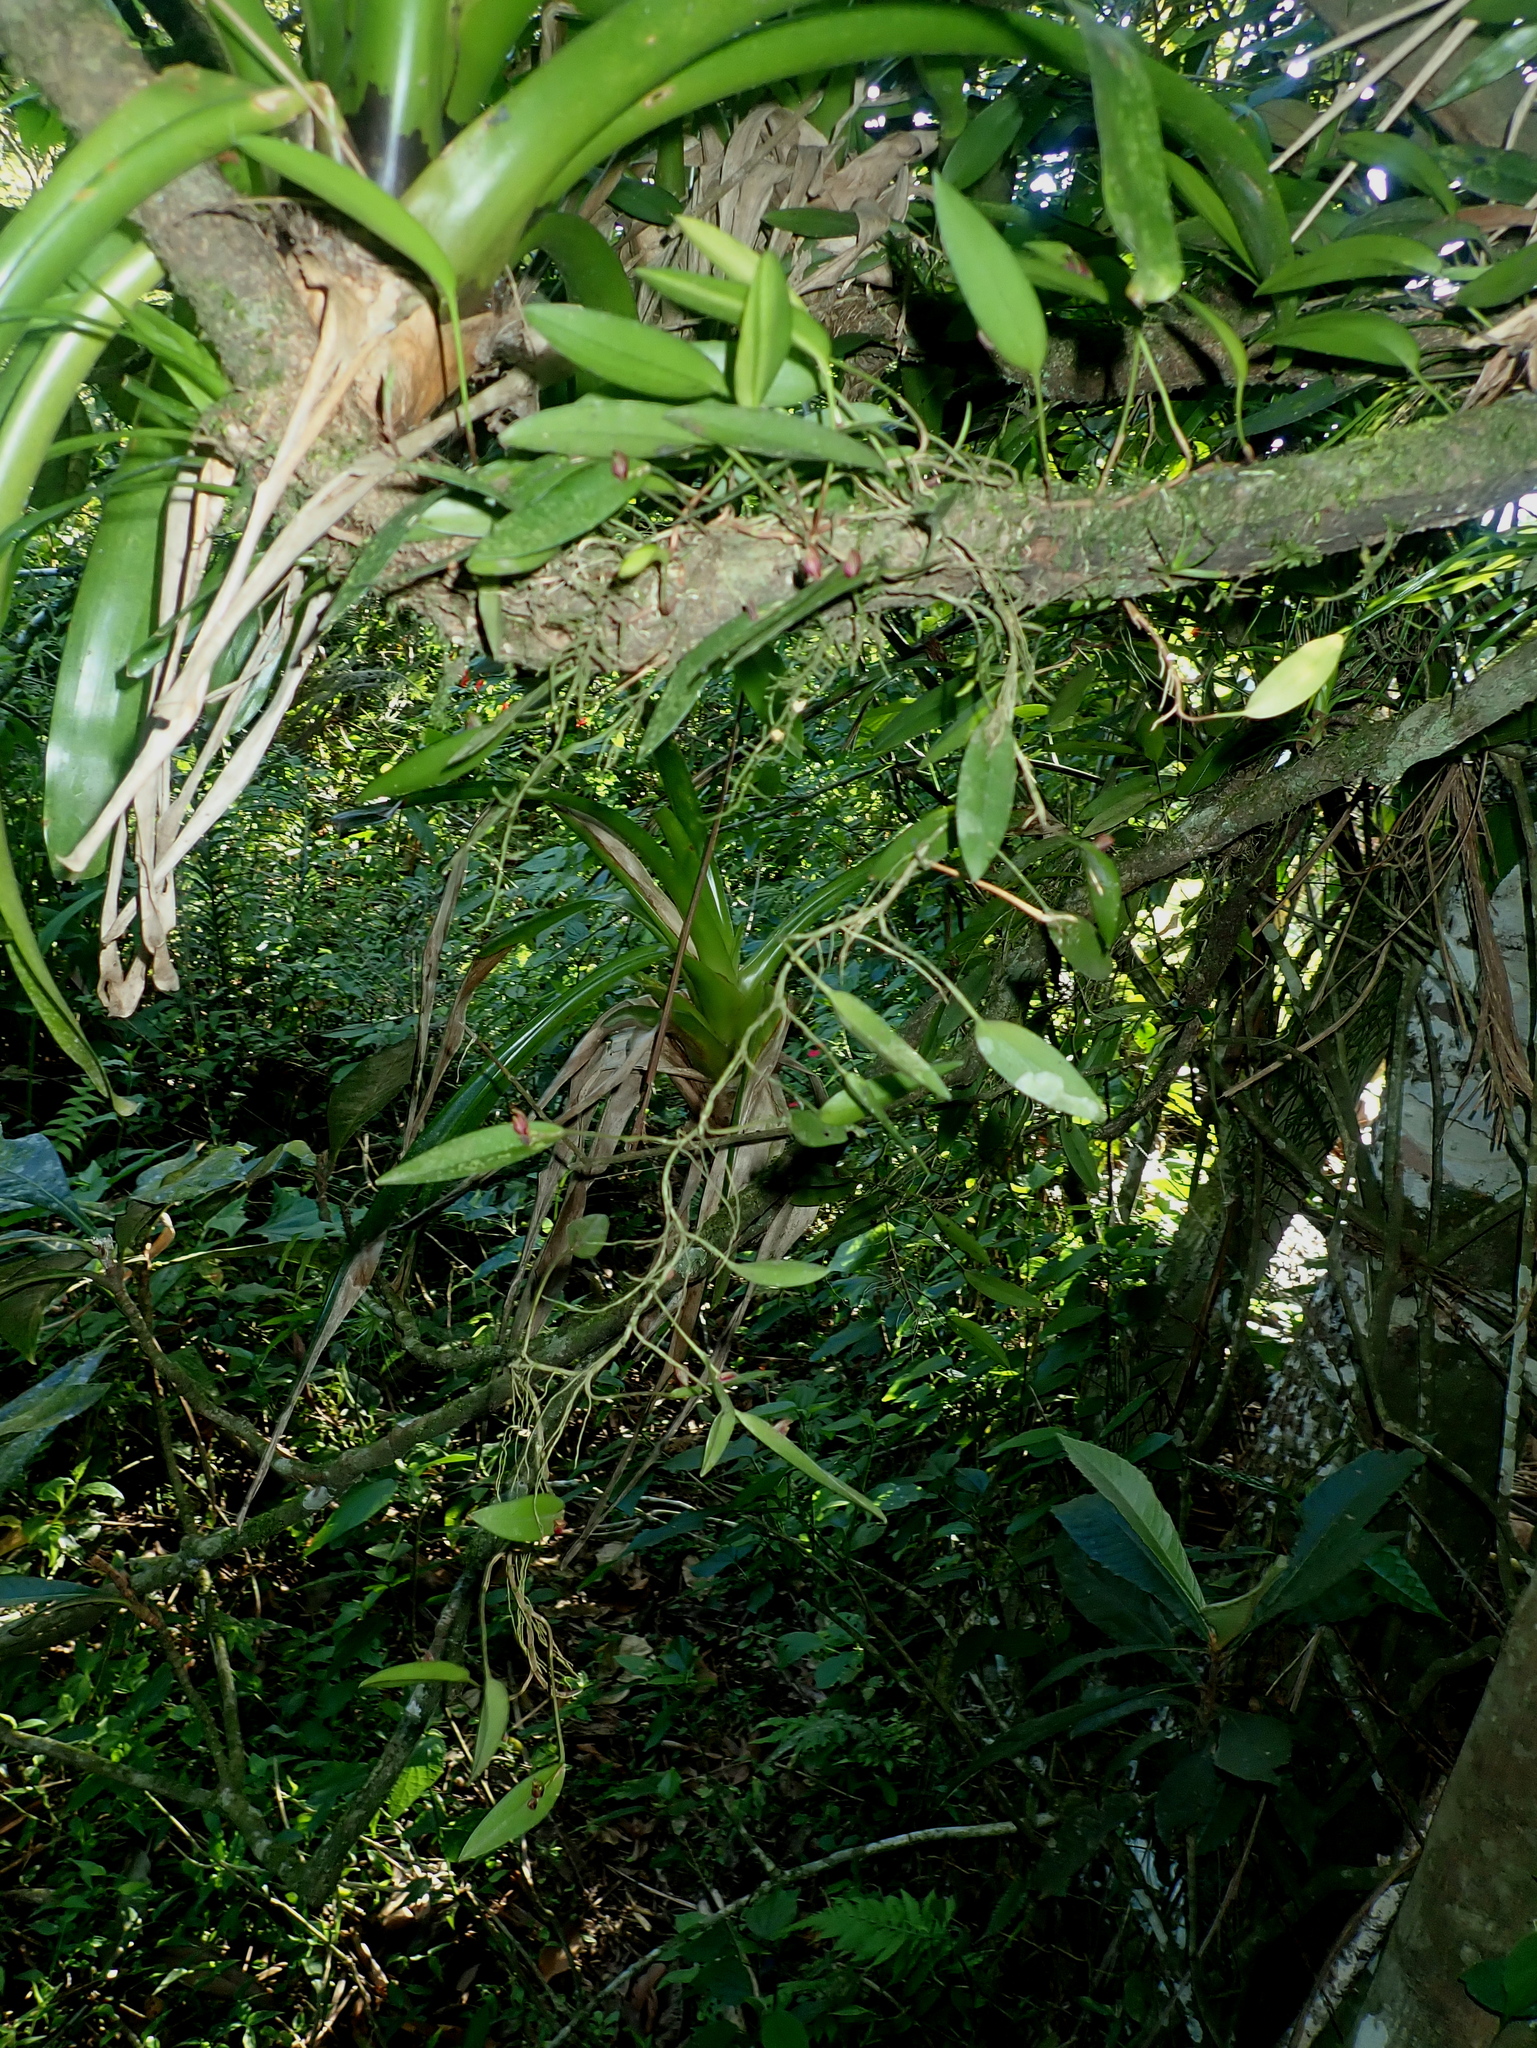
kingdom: Plantae
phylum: Tracheophyta
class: Liliopsida
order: Asparagales
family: Orchidaceae
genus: Acianthera
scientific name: Acianthera glanduligera
